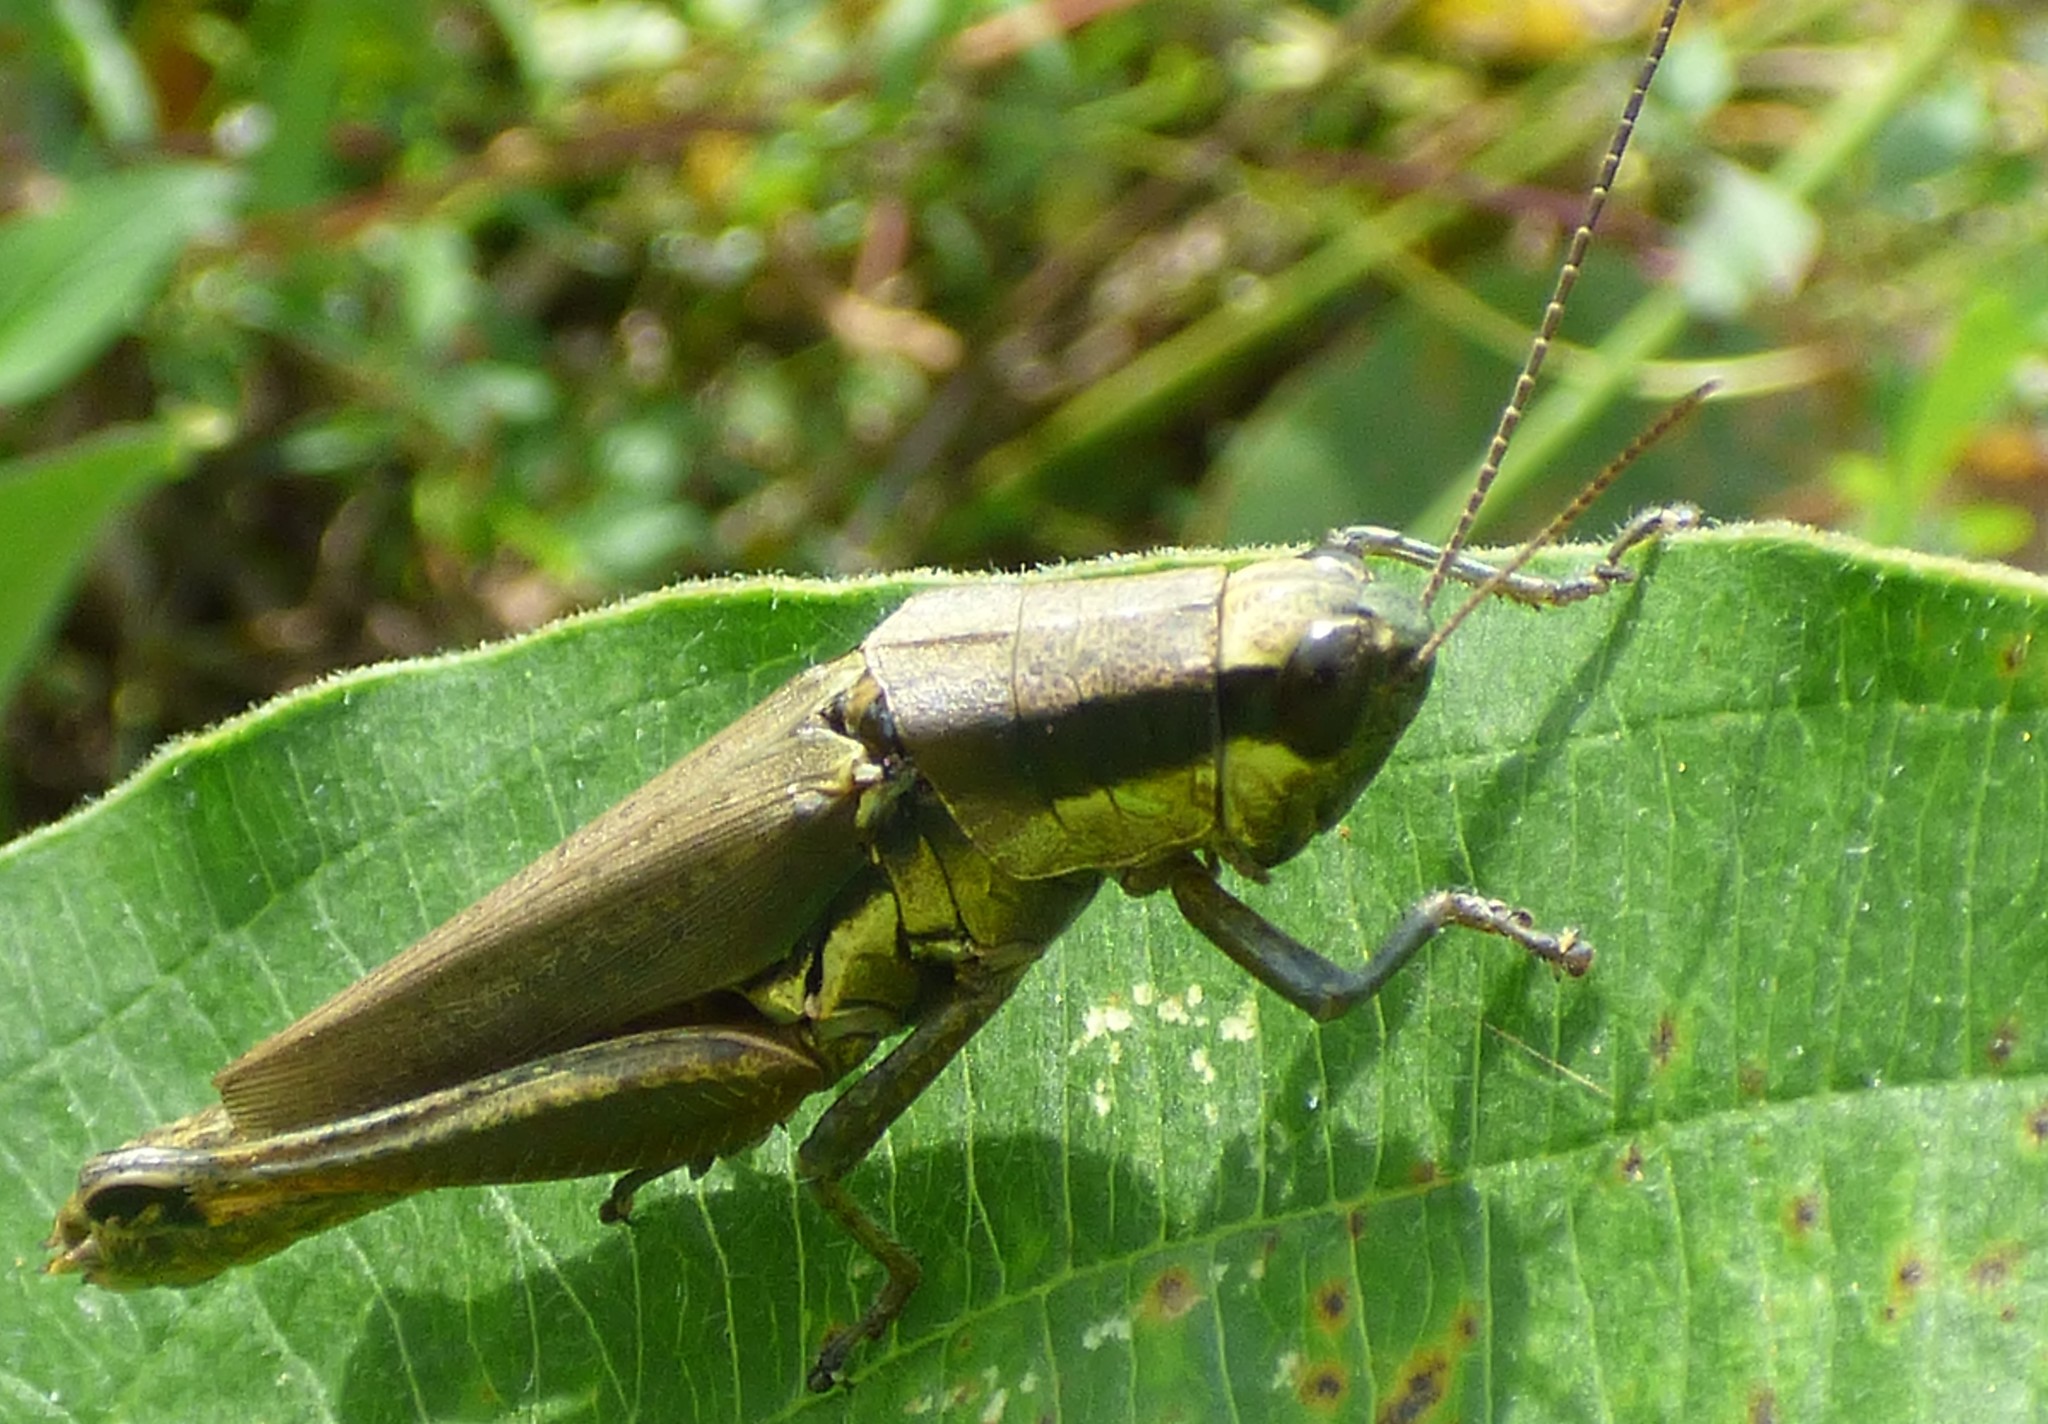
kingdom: Animalia
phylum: Arthropoda
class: Insecta
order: Orthoptera
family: Acrididae
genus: Paroxya
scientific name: Paroxya clavuligera
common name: Olive-green swamp grasshopper
